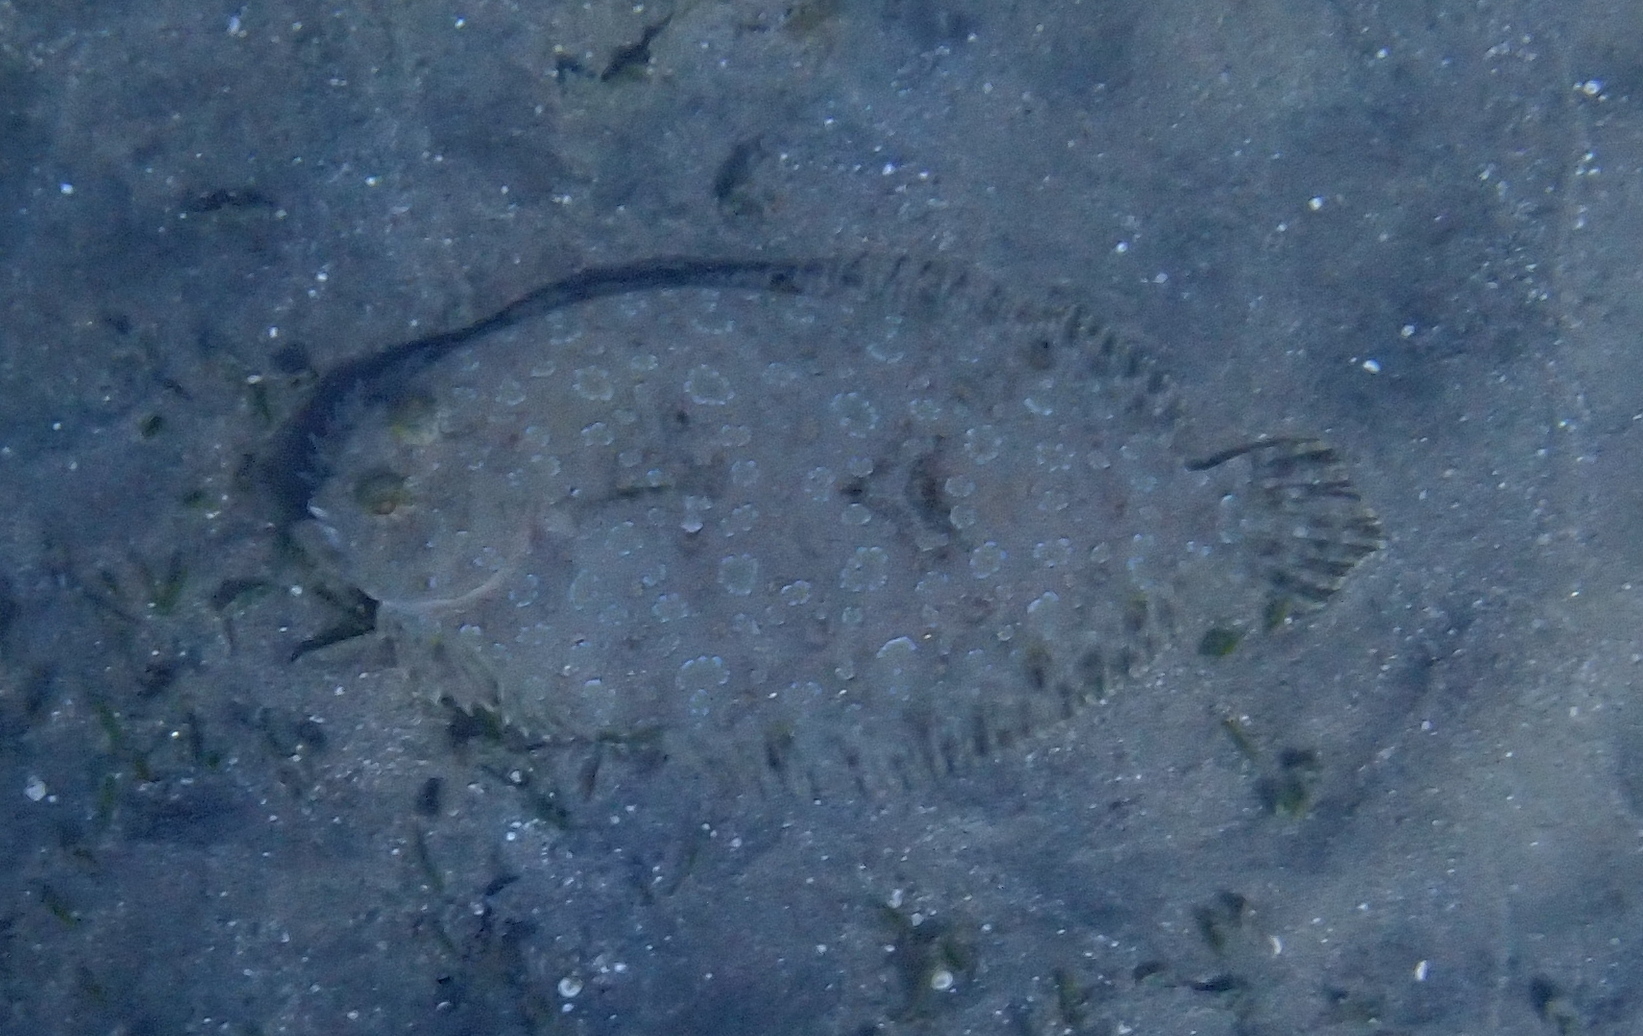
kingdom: Animalia
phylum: Chordata
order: Pleuronectiformes
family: Bothidae
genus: Bothus
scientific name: Bothus pantherinus
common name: Leopard flounder
